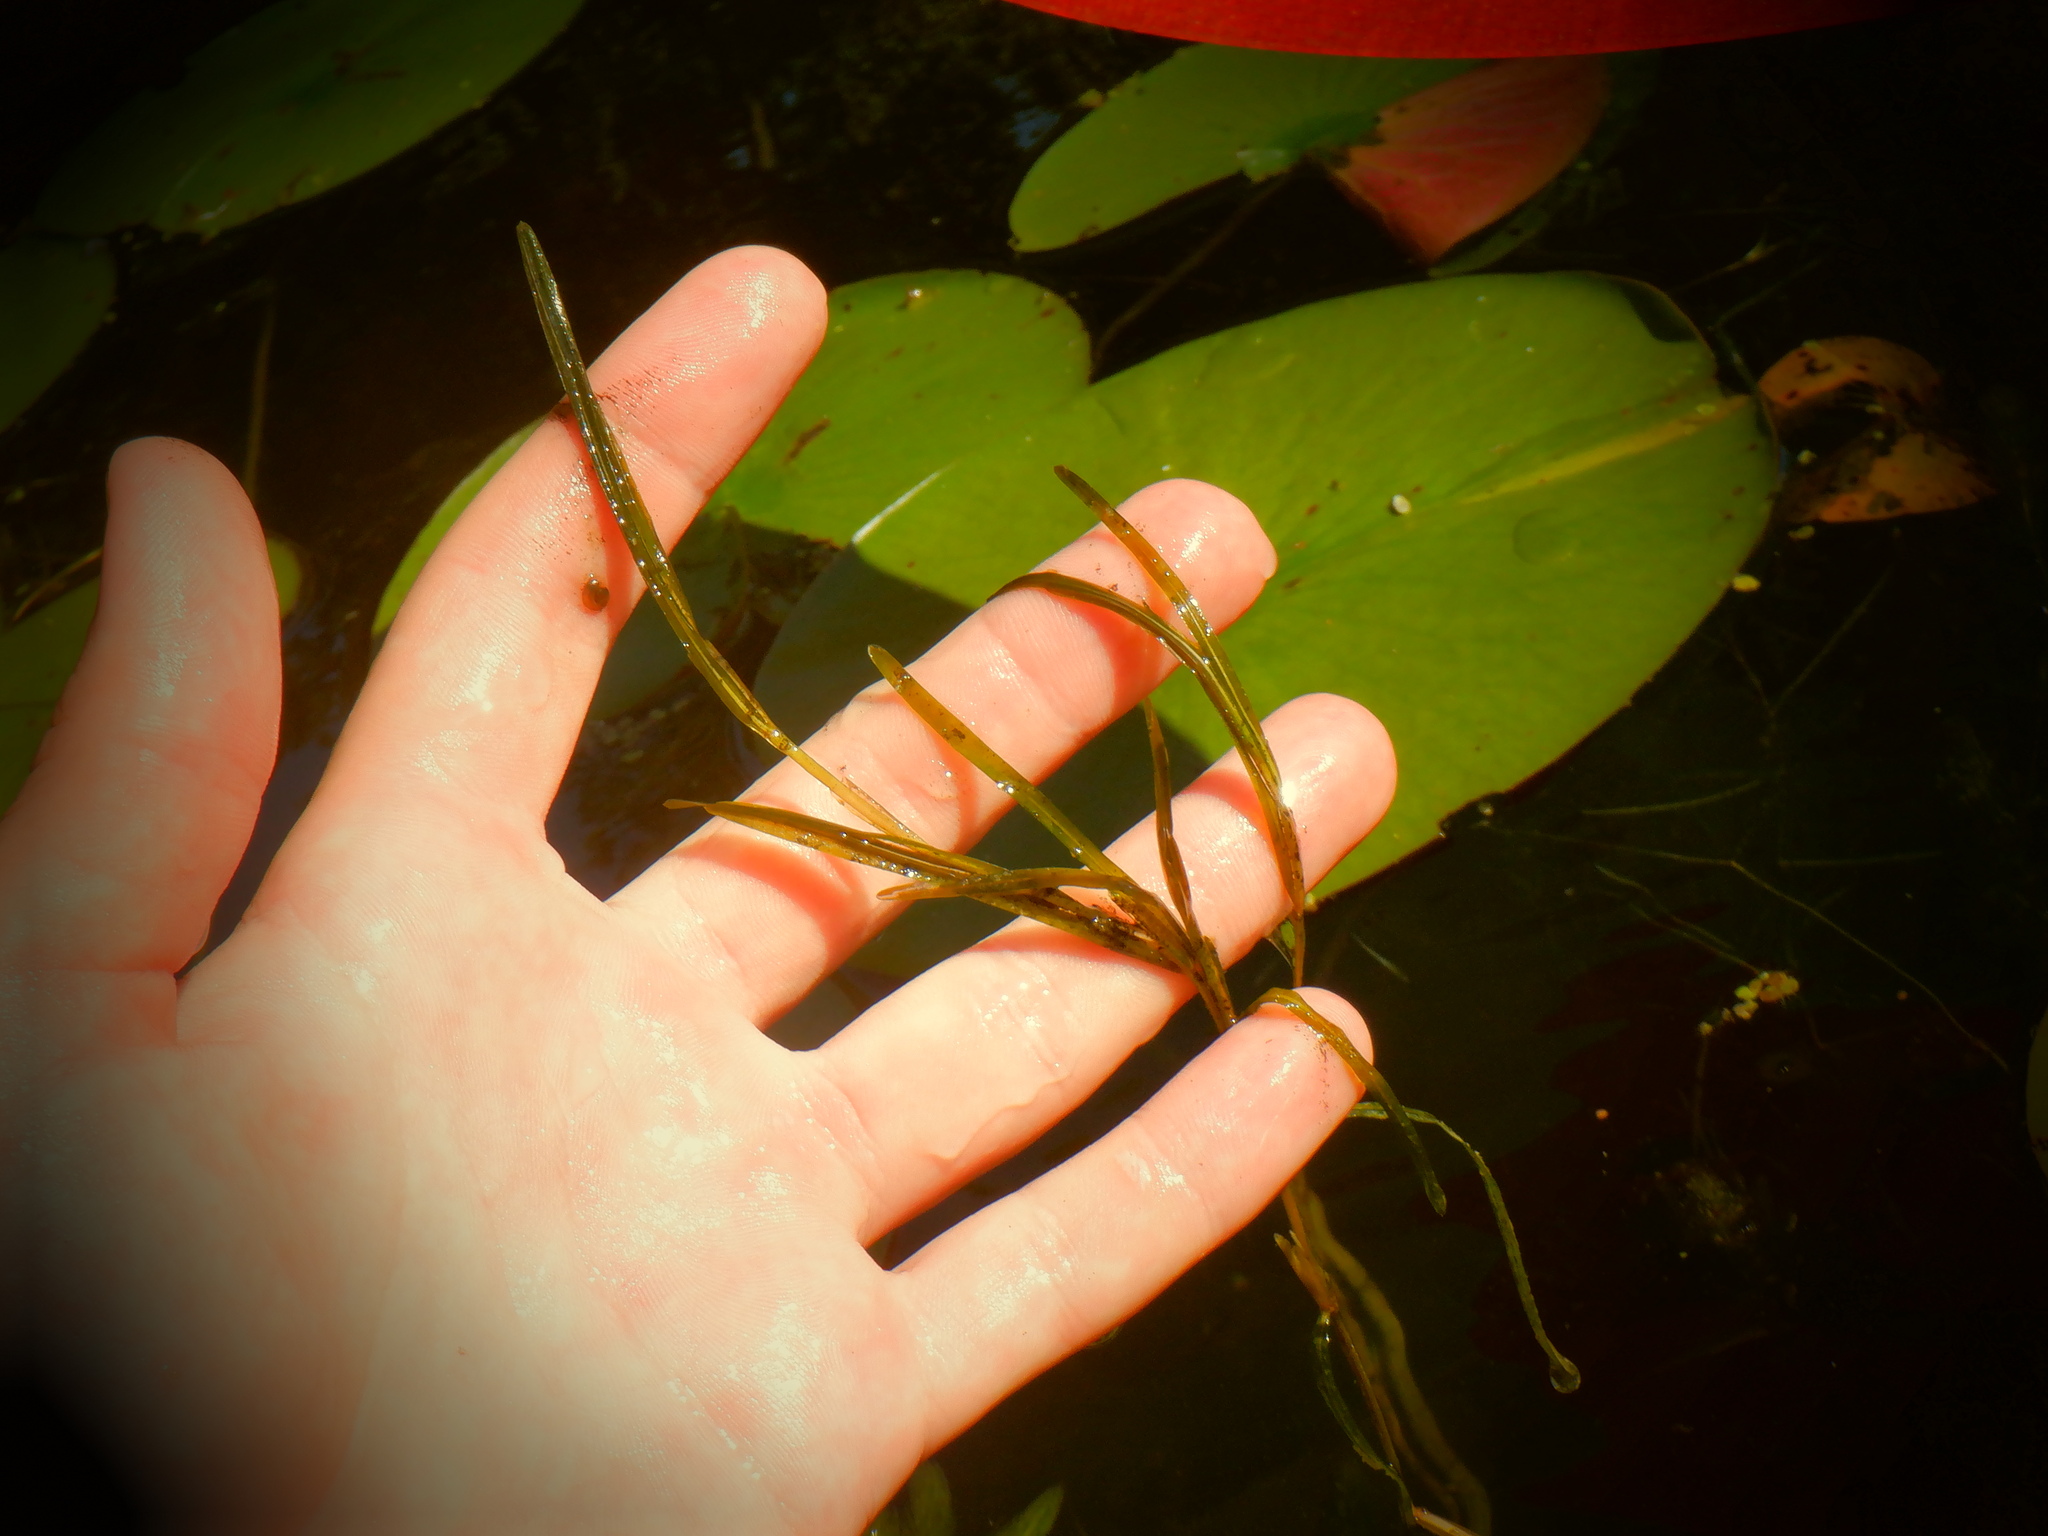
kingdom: Plantae
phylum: Tracheophyta
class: Liliopsida
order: Alismatales
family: Potamogetonaceae
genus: Potamogeton
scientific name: Potamogeton zosteriformis
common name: Eelgrass pondweed
